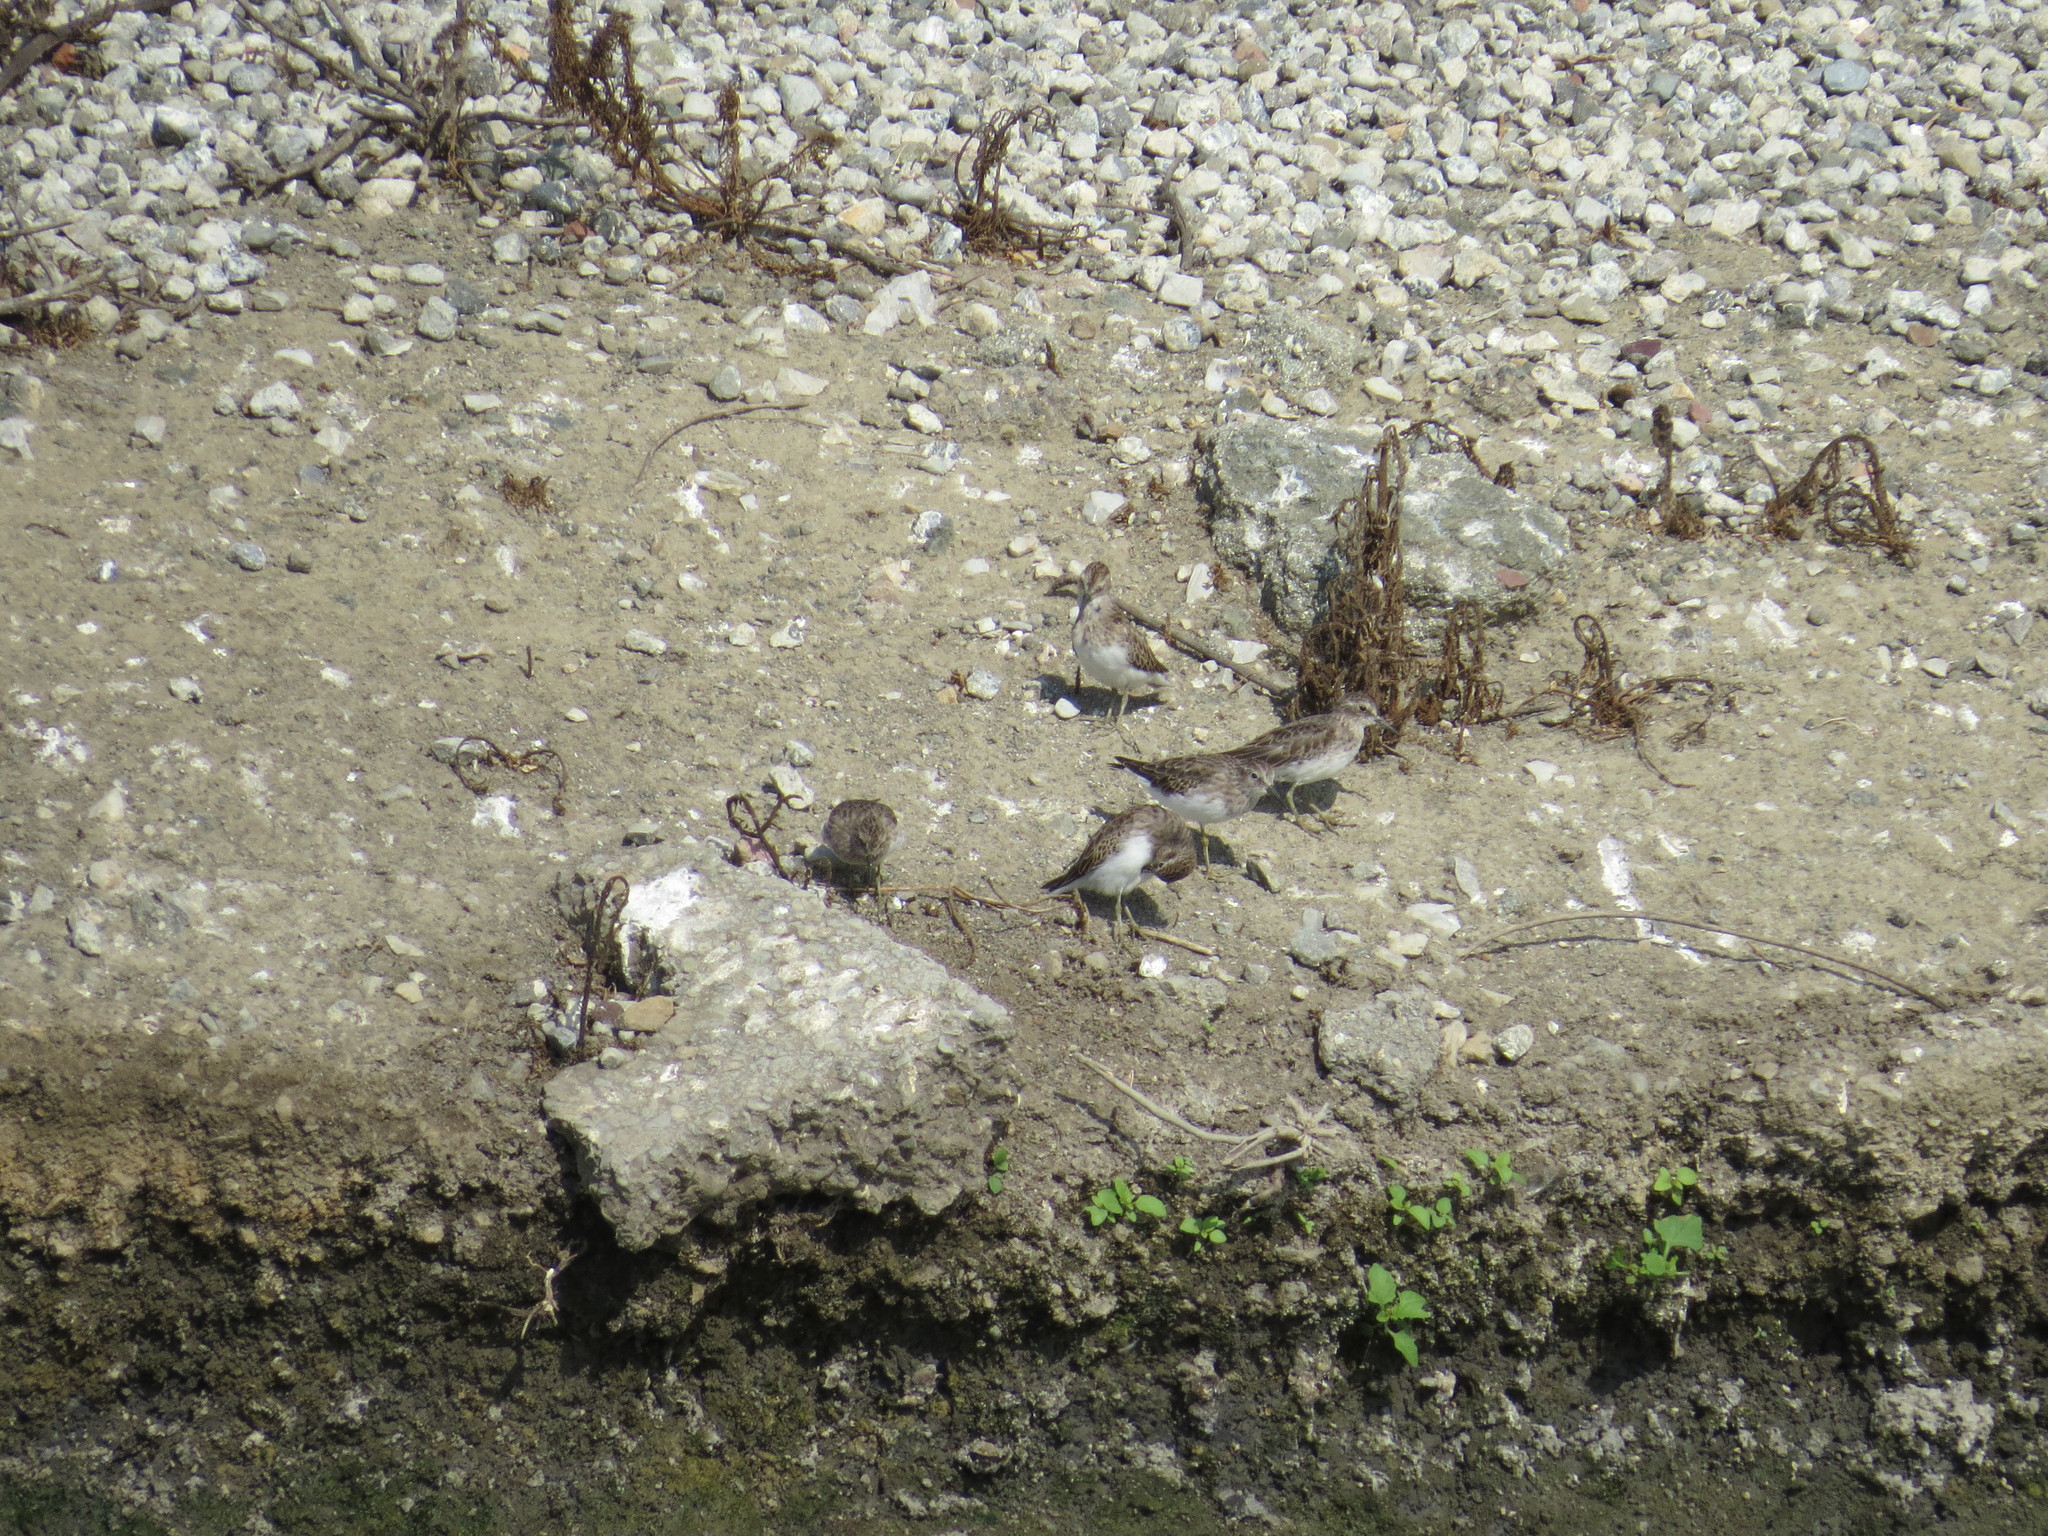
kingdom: Animalia
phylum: Chordata
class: Aves
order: Charadriiformes
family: Scolopacidae
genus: Calidris
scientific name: Calidris minutilla
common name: Least sandpiper
